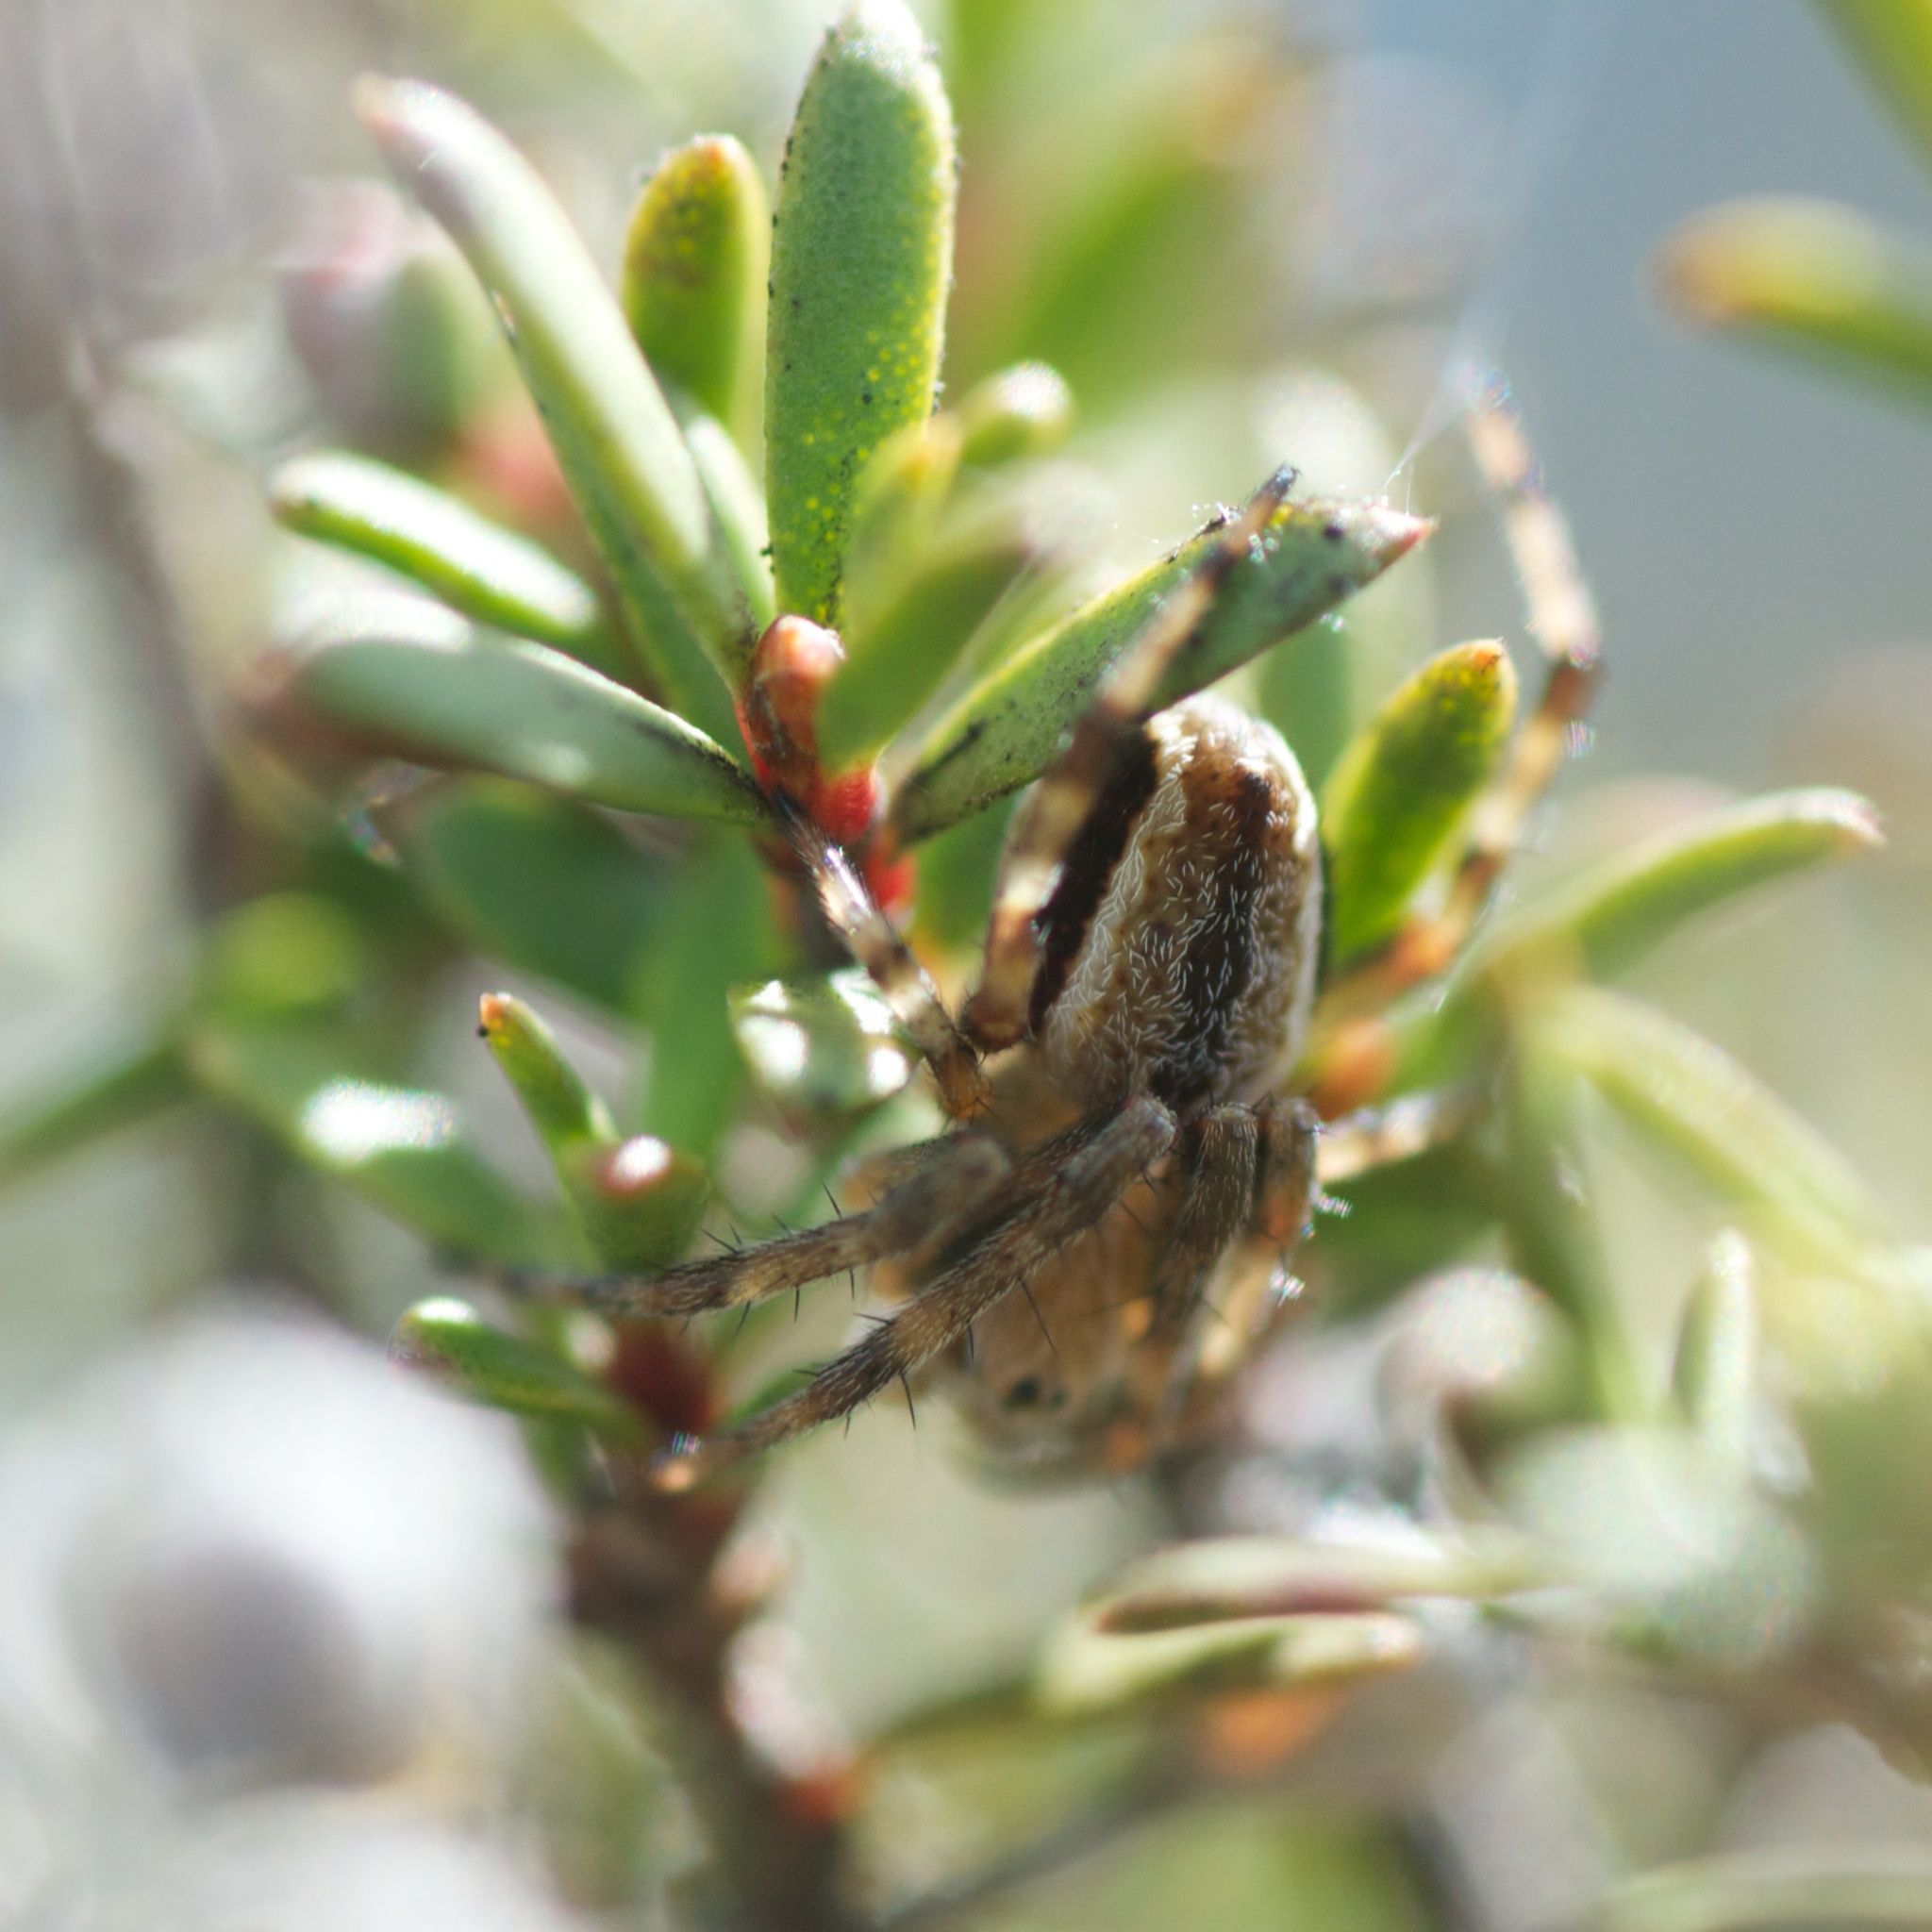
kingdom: Animalia
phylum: Arthropoda
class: Arachnida
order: Araneae
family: Oxyopidae
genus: Oxyopes
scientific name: Oxyopes gracilipes
